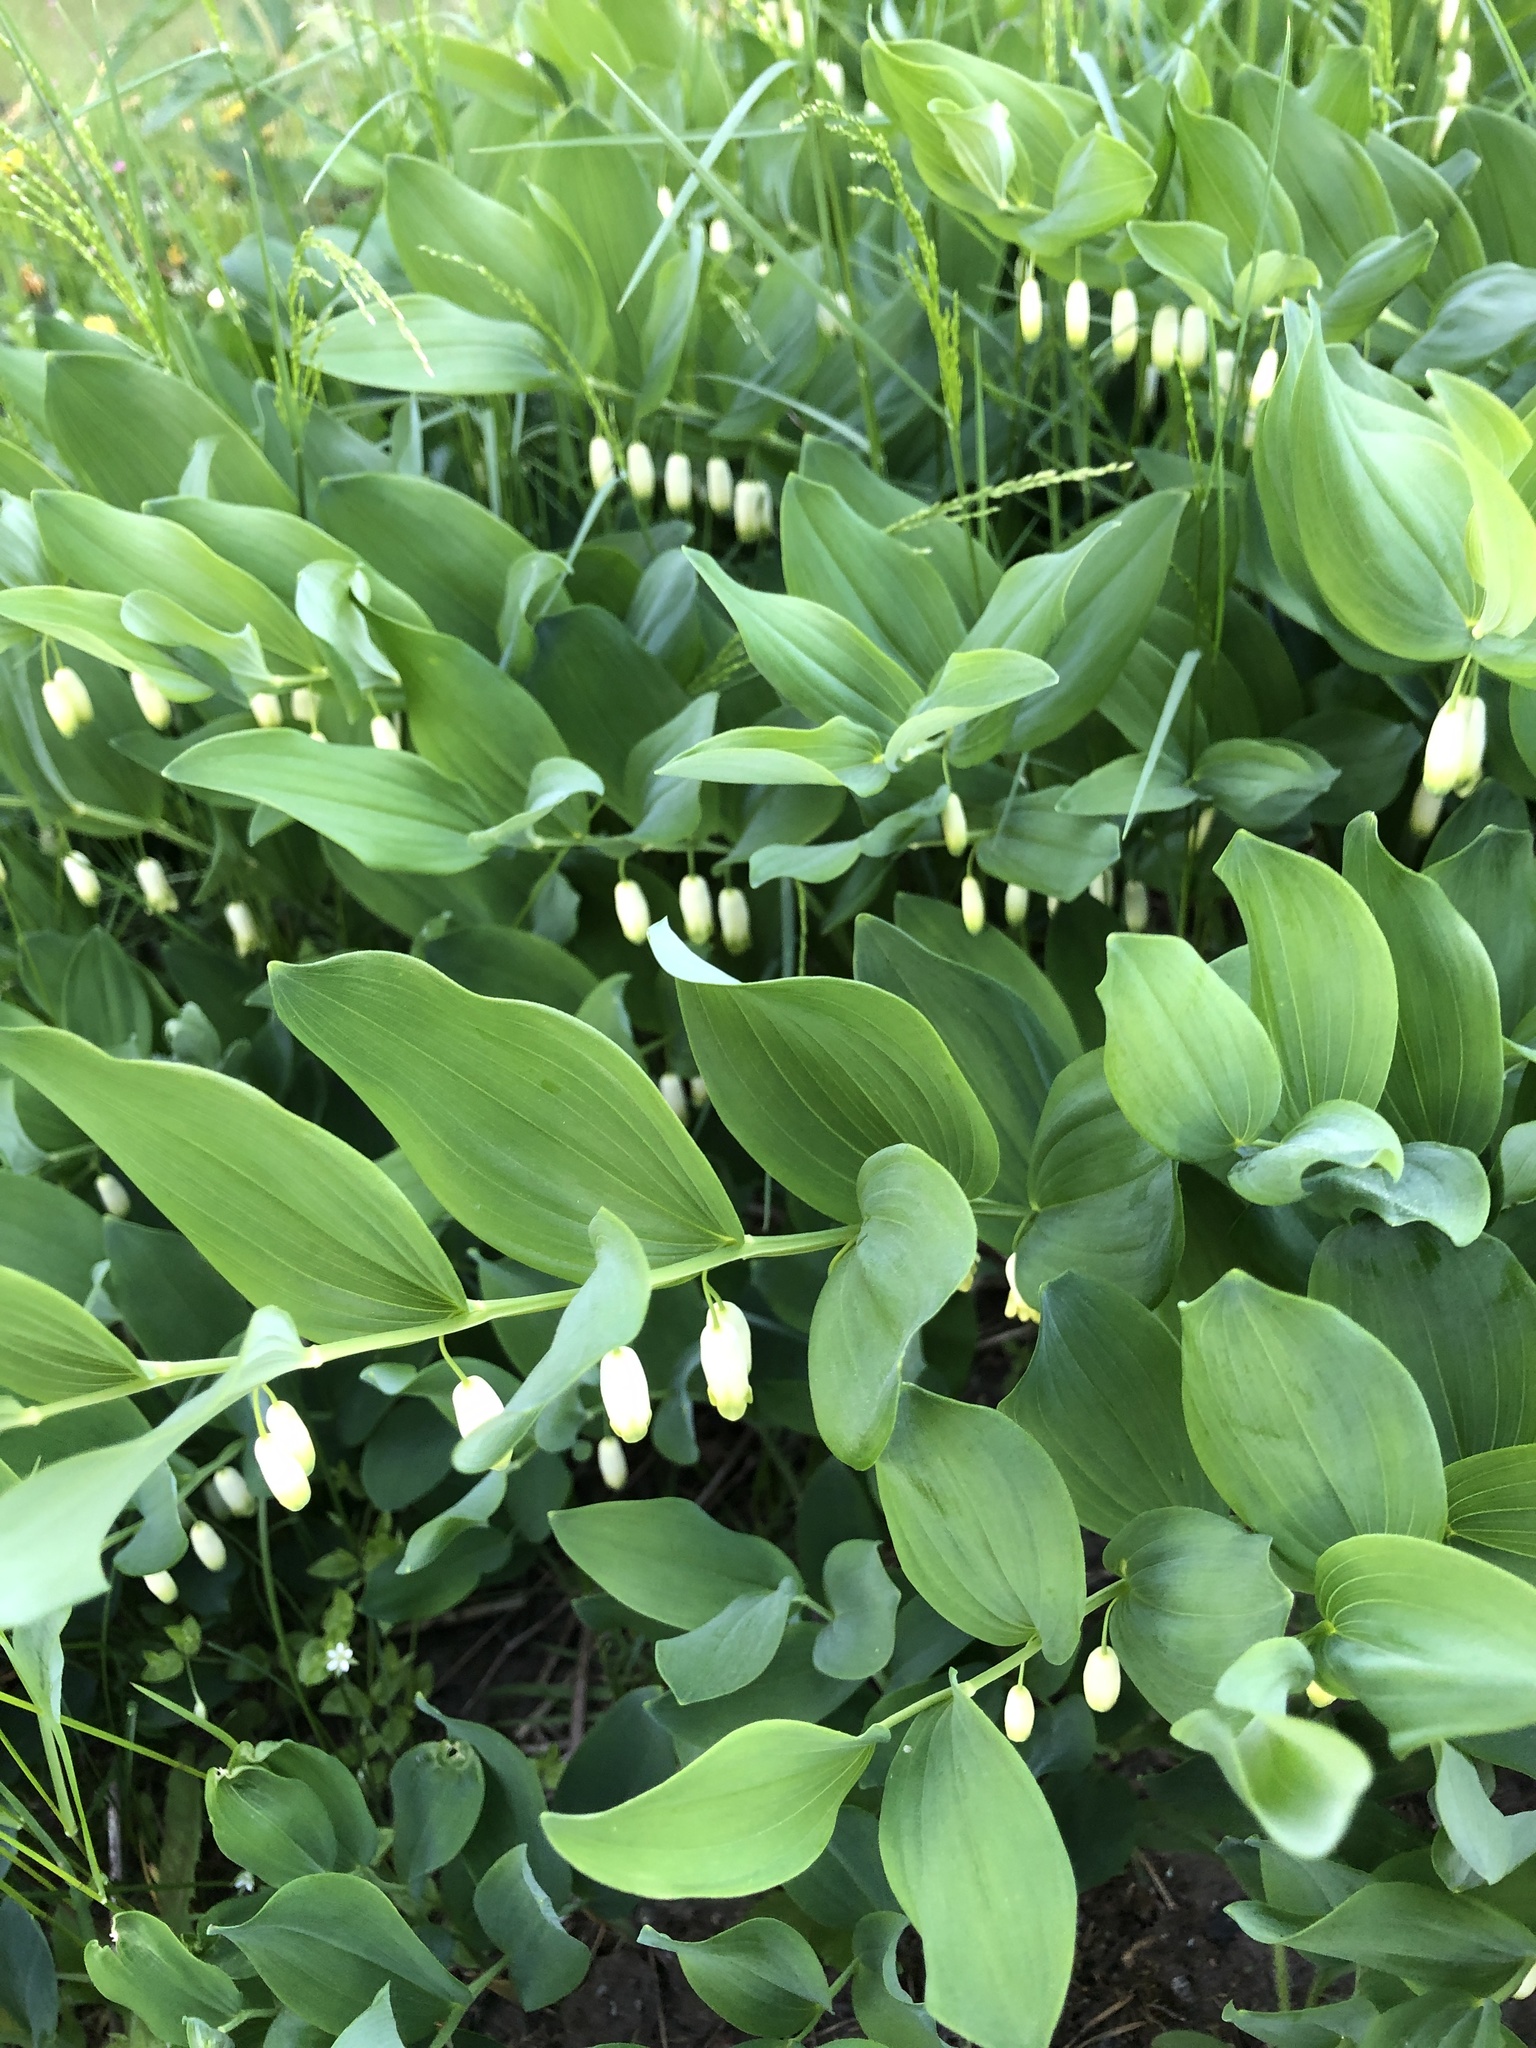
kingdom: Plantae
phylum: Tracheophyta
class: Liliopsida
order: Asparagales
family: Asparagaceae
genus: Polygonatum
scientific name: Polygonatum odoratum
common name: Angular solomon's-seal
